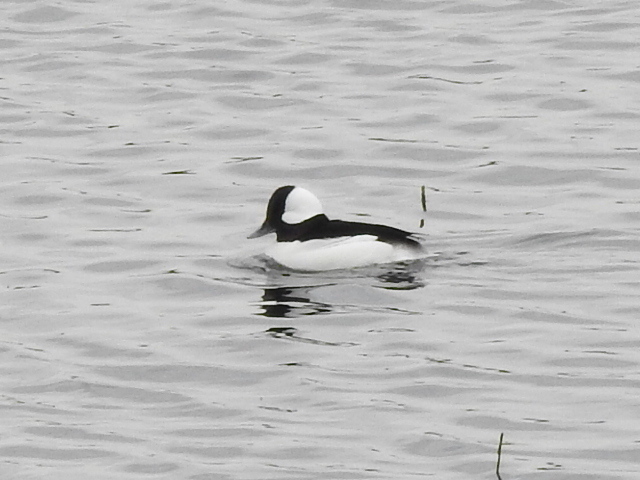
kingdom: Animalia
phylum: Chordata
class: Aves
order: Anseriformes
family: Anatidae
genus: Bucephala
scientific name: Bucephala albeola
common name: Bufflehead
